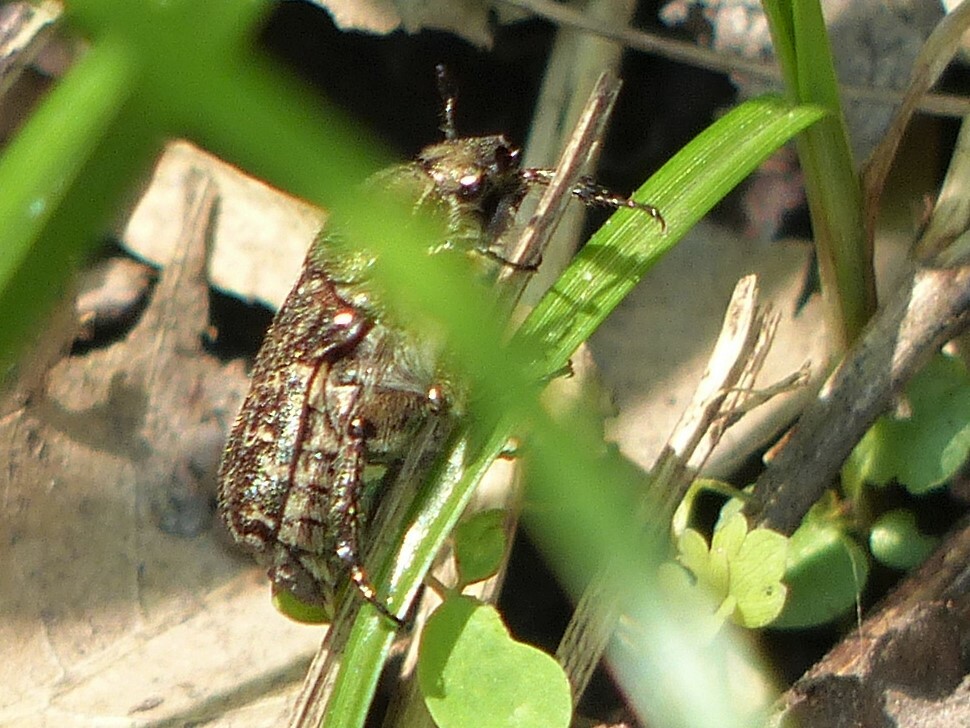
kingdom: Animalia
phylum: Arthropoda
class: Insecta
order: Coleoptera
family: Scarabaeidae
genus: Euphoria
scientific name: Euphoria sepulcralis
